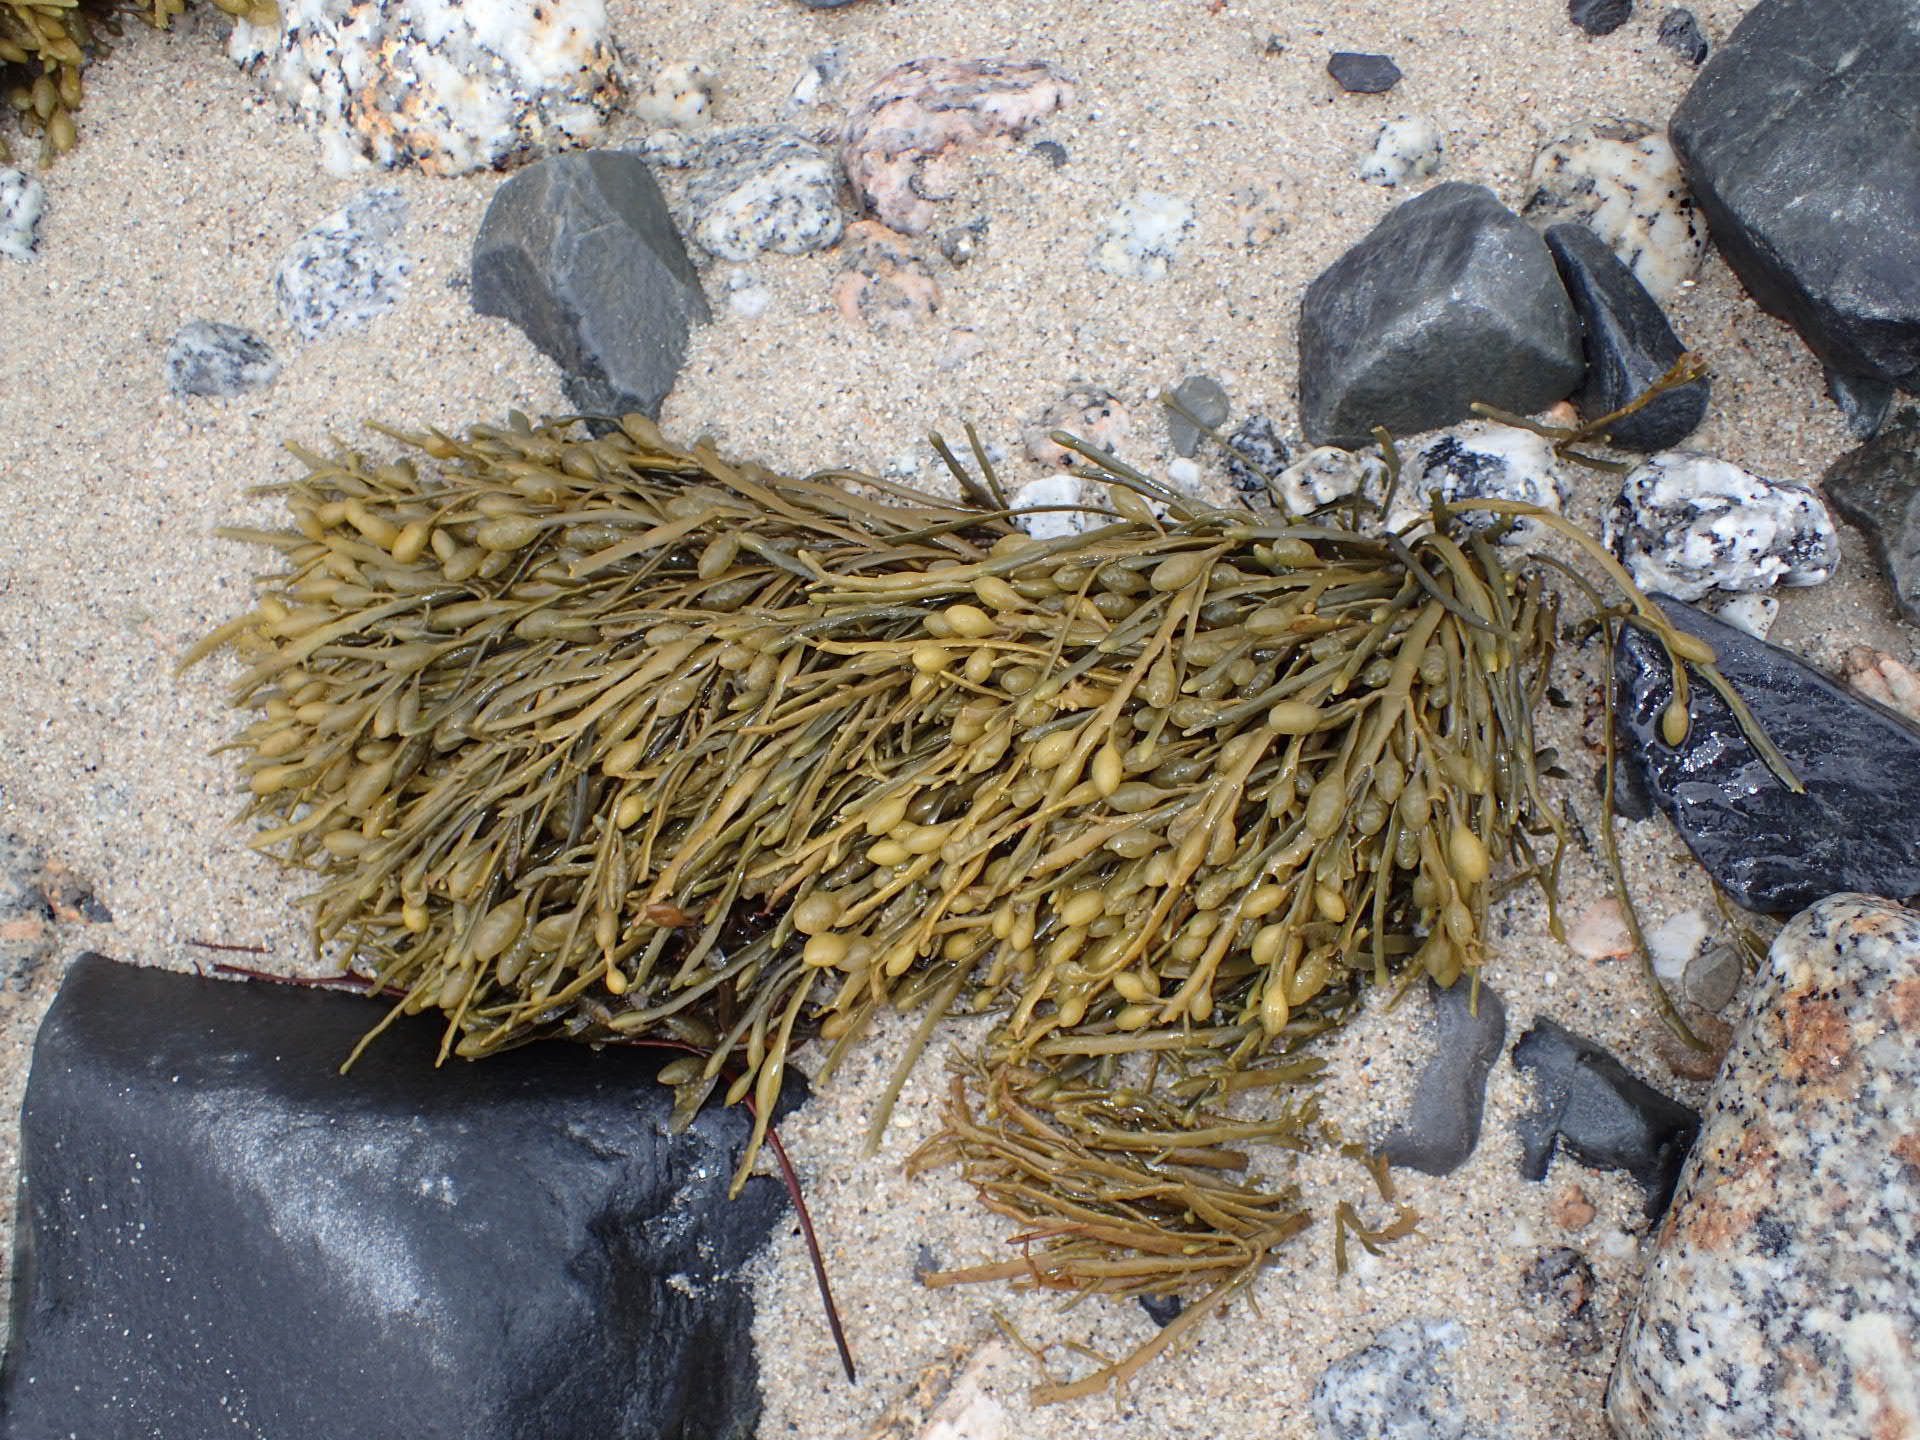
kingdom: Chromista
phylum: Ochrophyta
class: Phaeophyceae
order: Fucales
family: Fucaceae
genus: Ascophyllum
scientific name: Ascophyllum nodosum
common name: Knotted wrack
